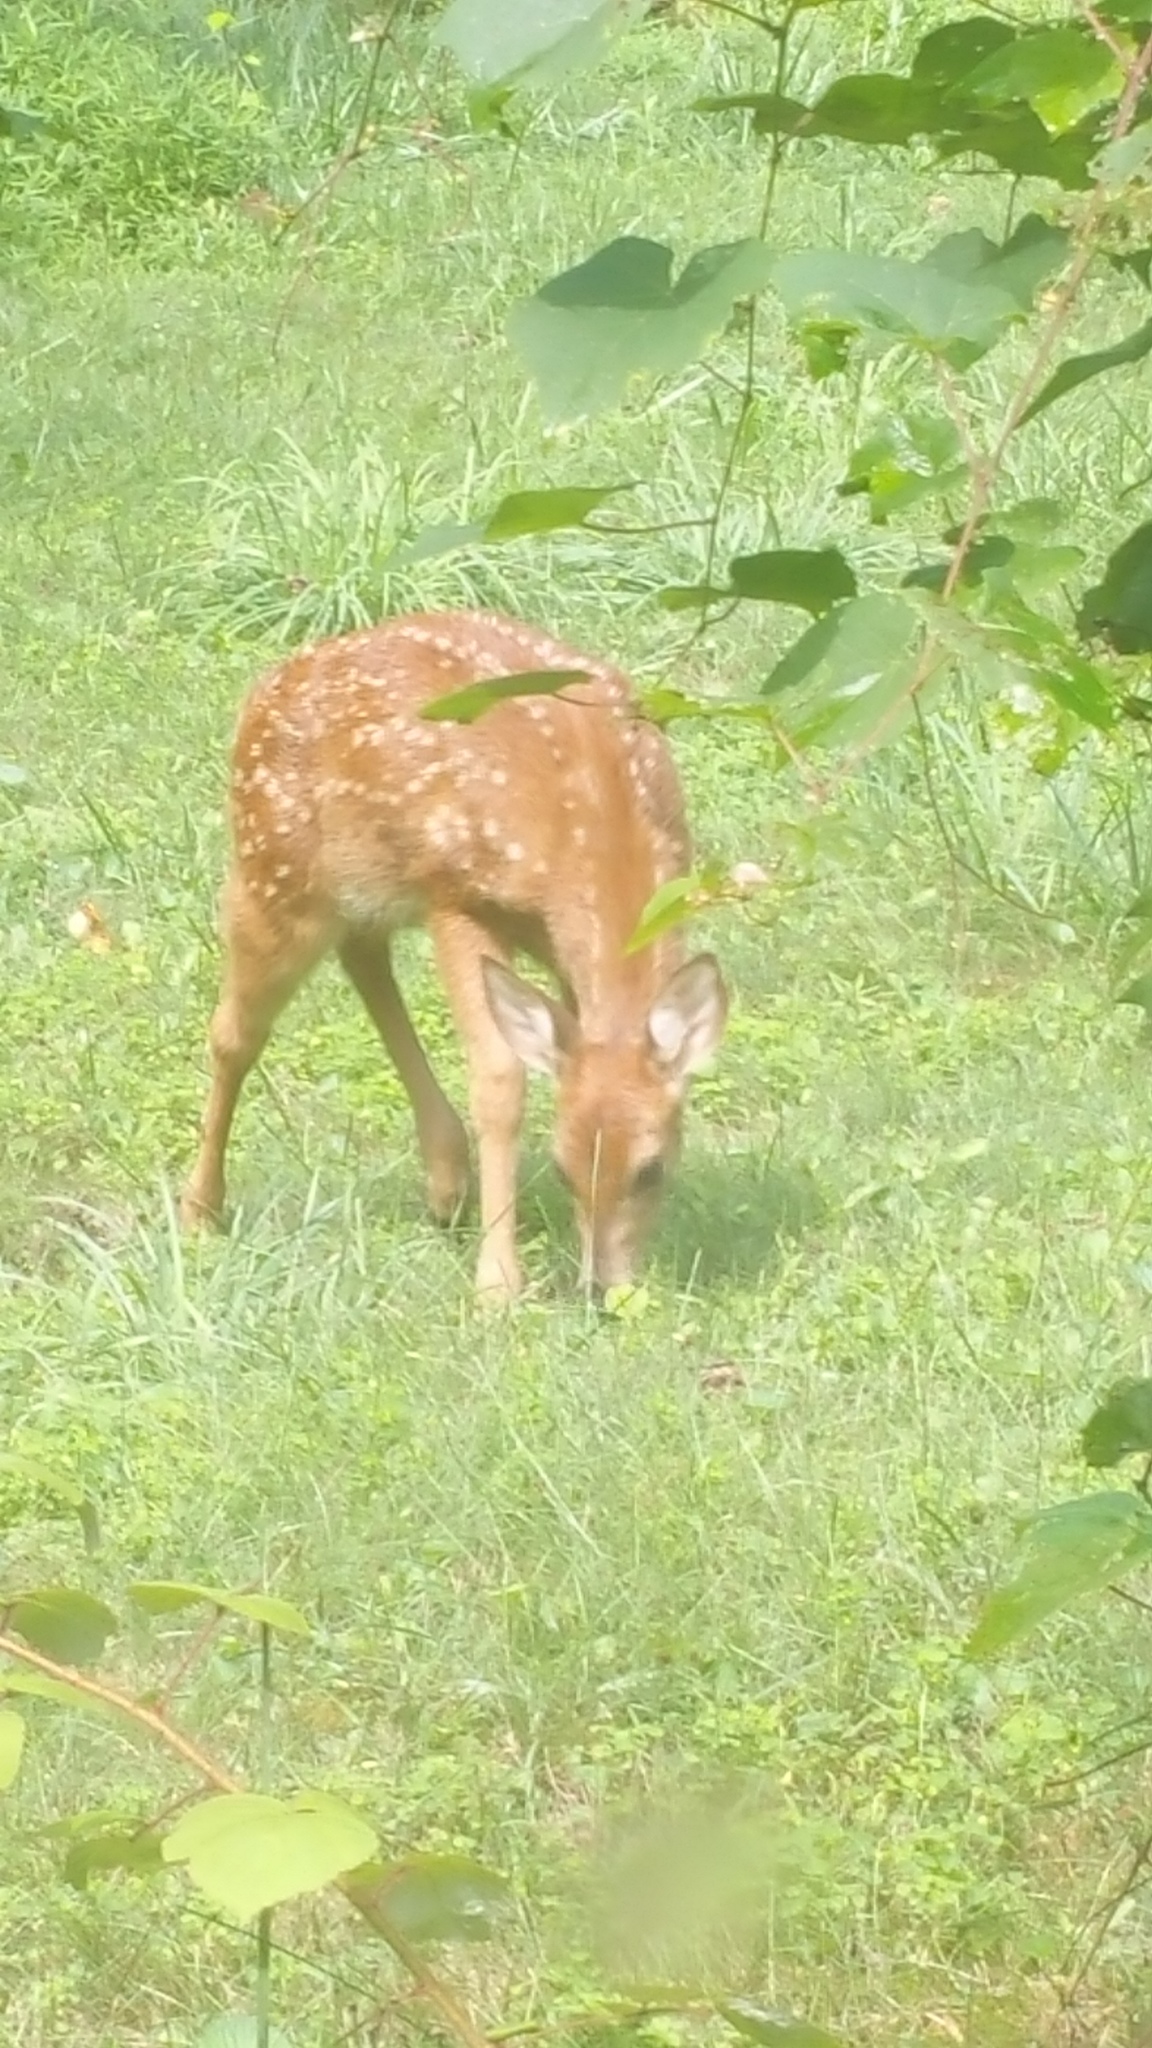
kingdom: Animalia
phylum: Chordata
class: Mammalia
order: Artiodactyla
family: Cervidae
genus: Odocoileus
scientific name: Odocoileus virginianus
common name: White-tailed deer
